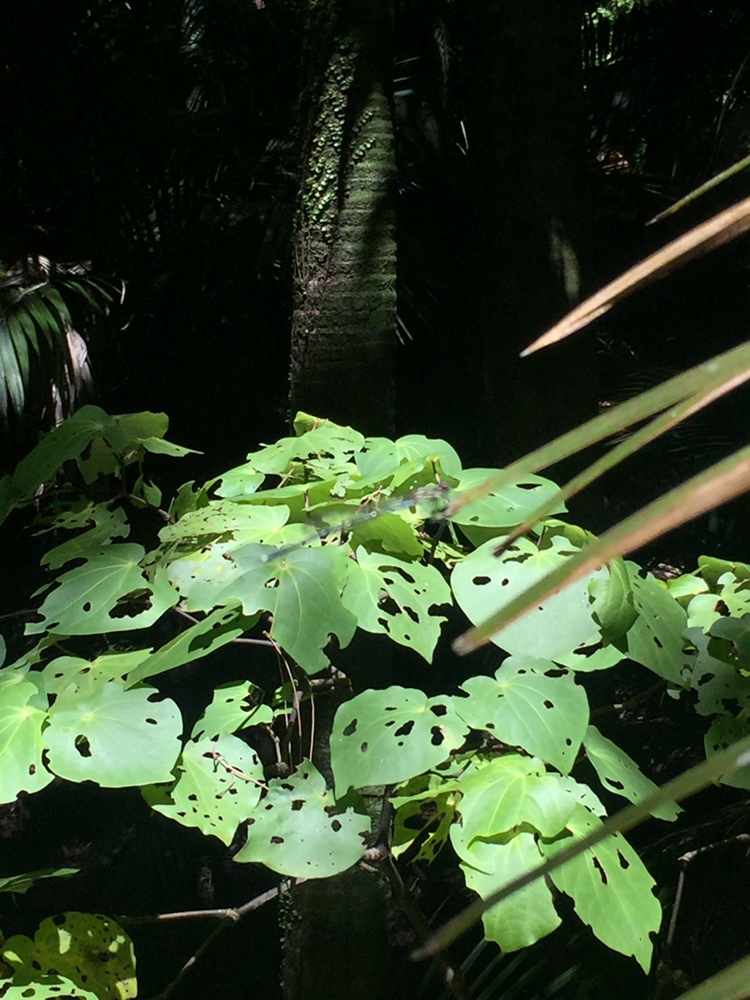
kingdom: Plantae
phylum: Tracheophyta
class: Magnoliopsida
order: Piperales
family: Piperaceae
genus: Macropiper
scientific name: Macropiper excelsum
